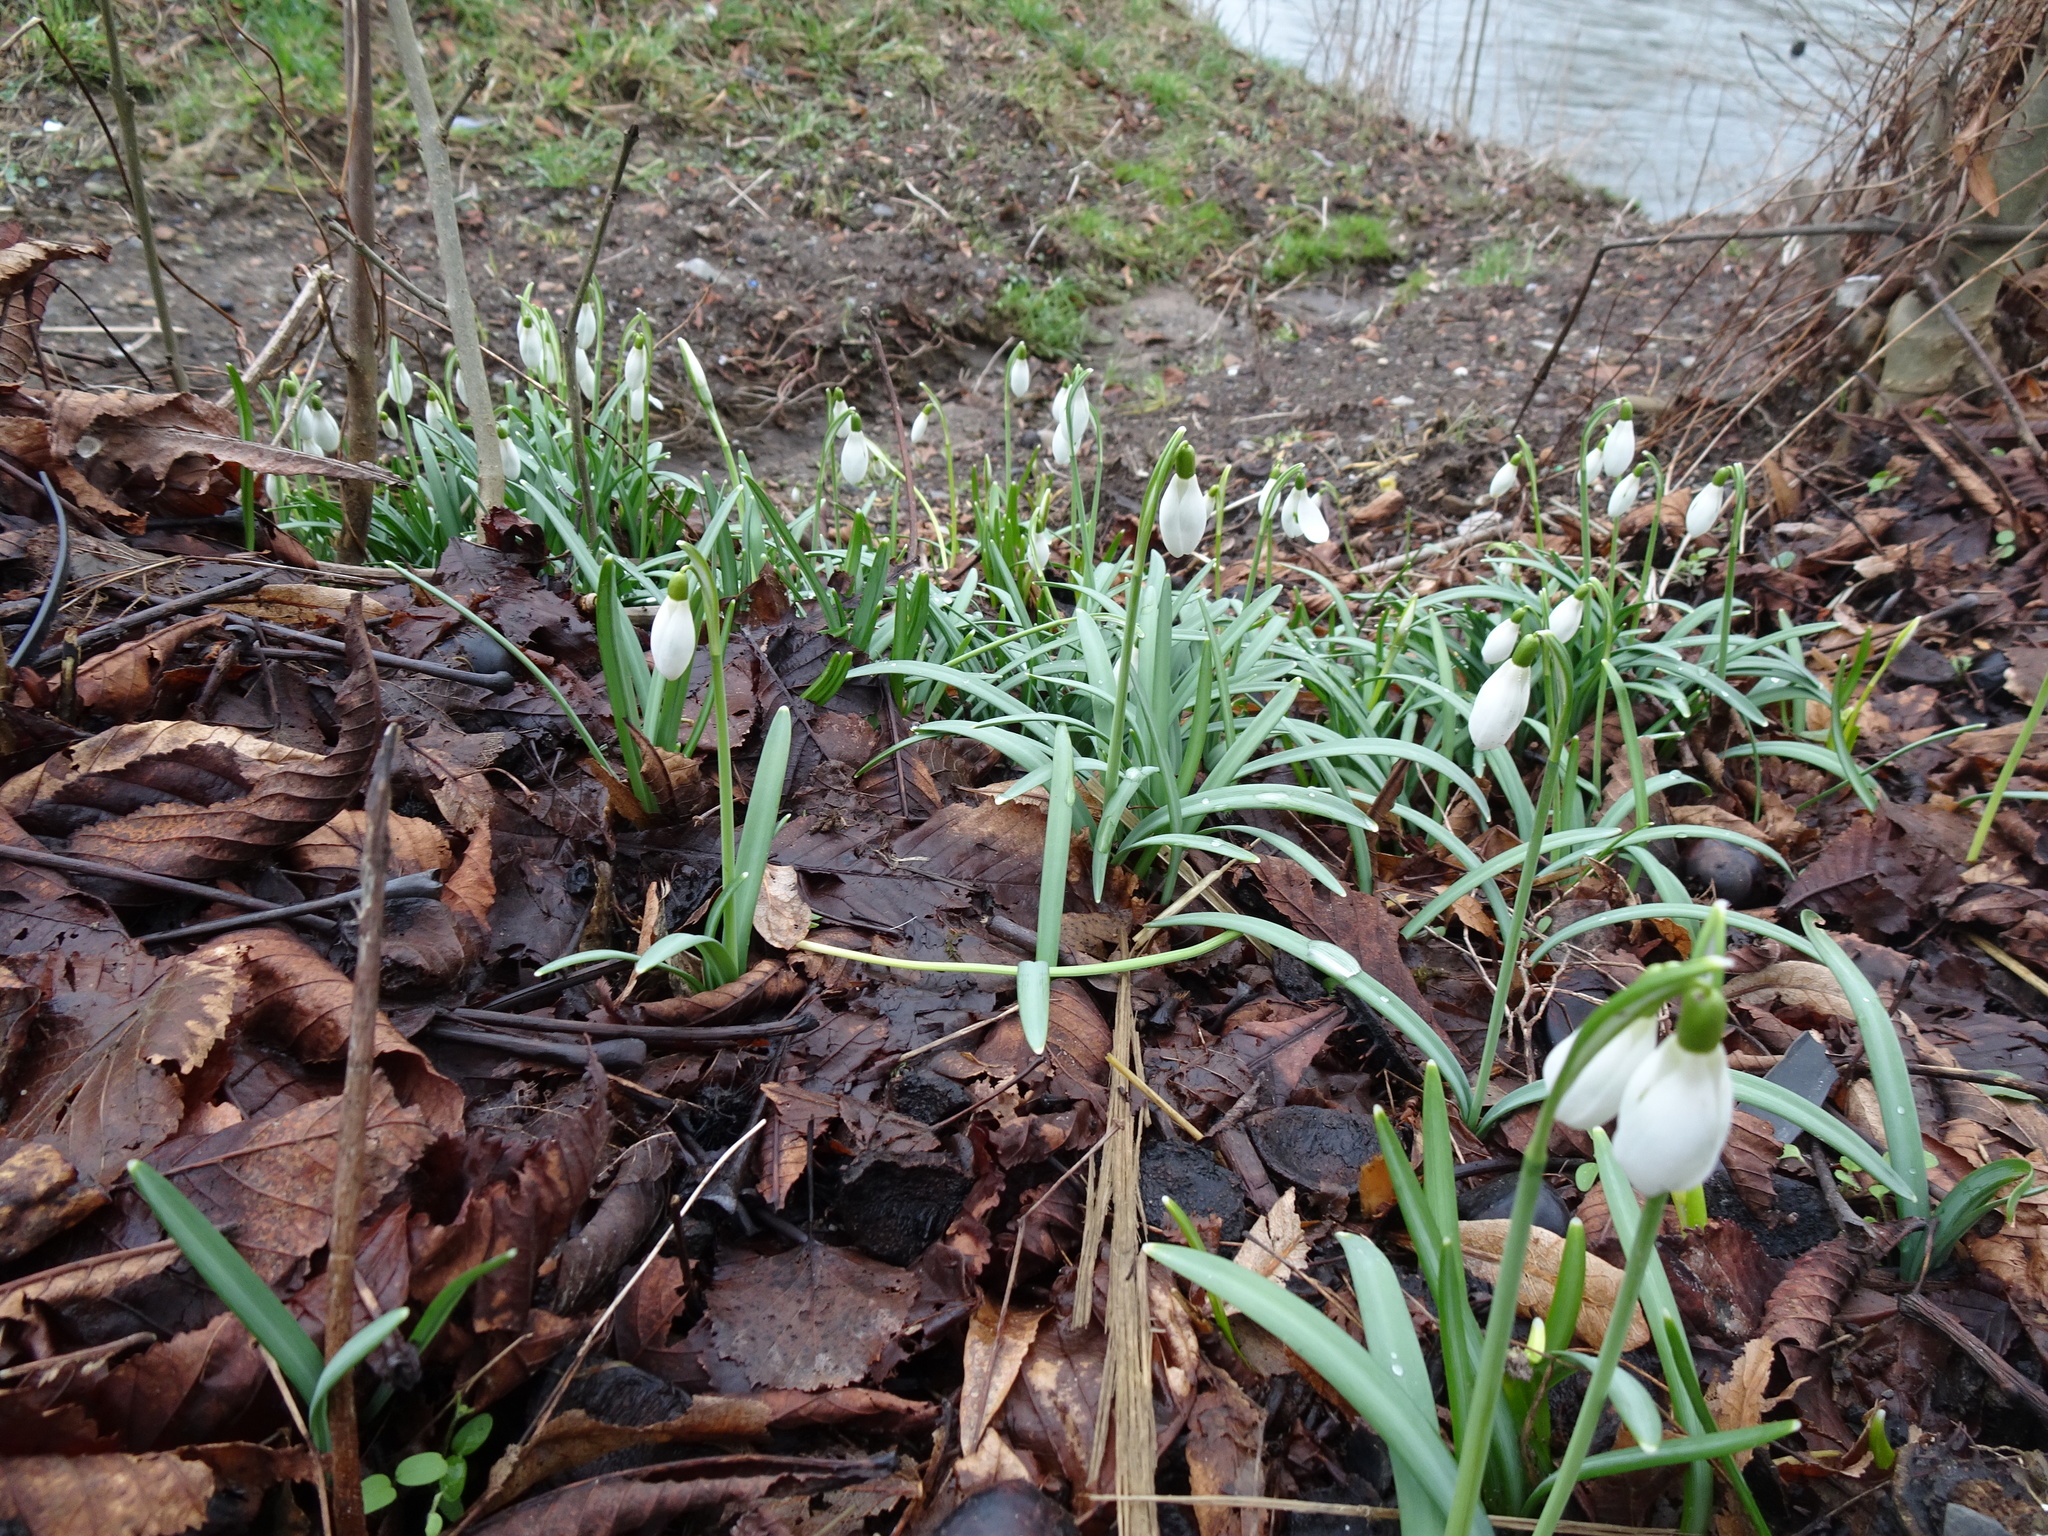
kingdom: Plantae
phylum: Tracheophyta
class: Liliopsida
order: Asparagales
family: Amaryllidaceae
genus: Galanthus
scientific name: Galanthus nivalis
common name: Snowdrop
